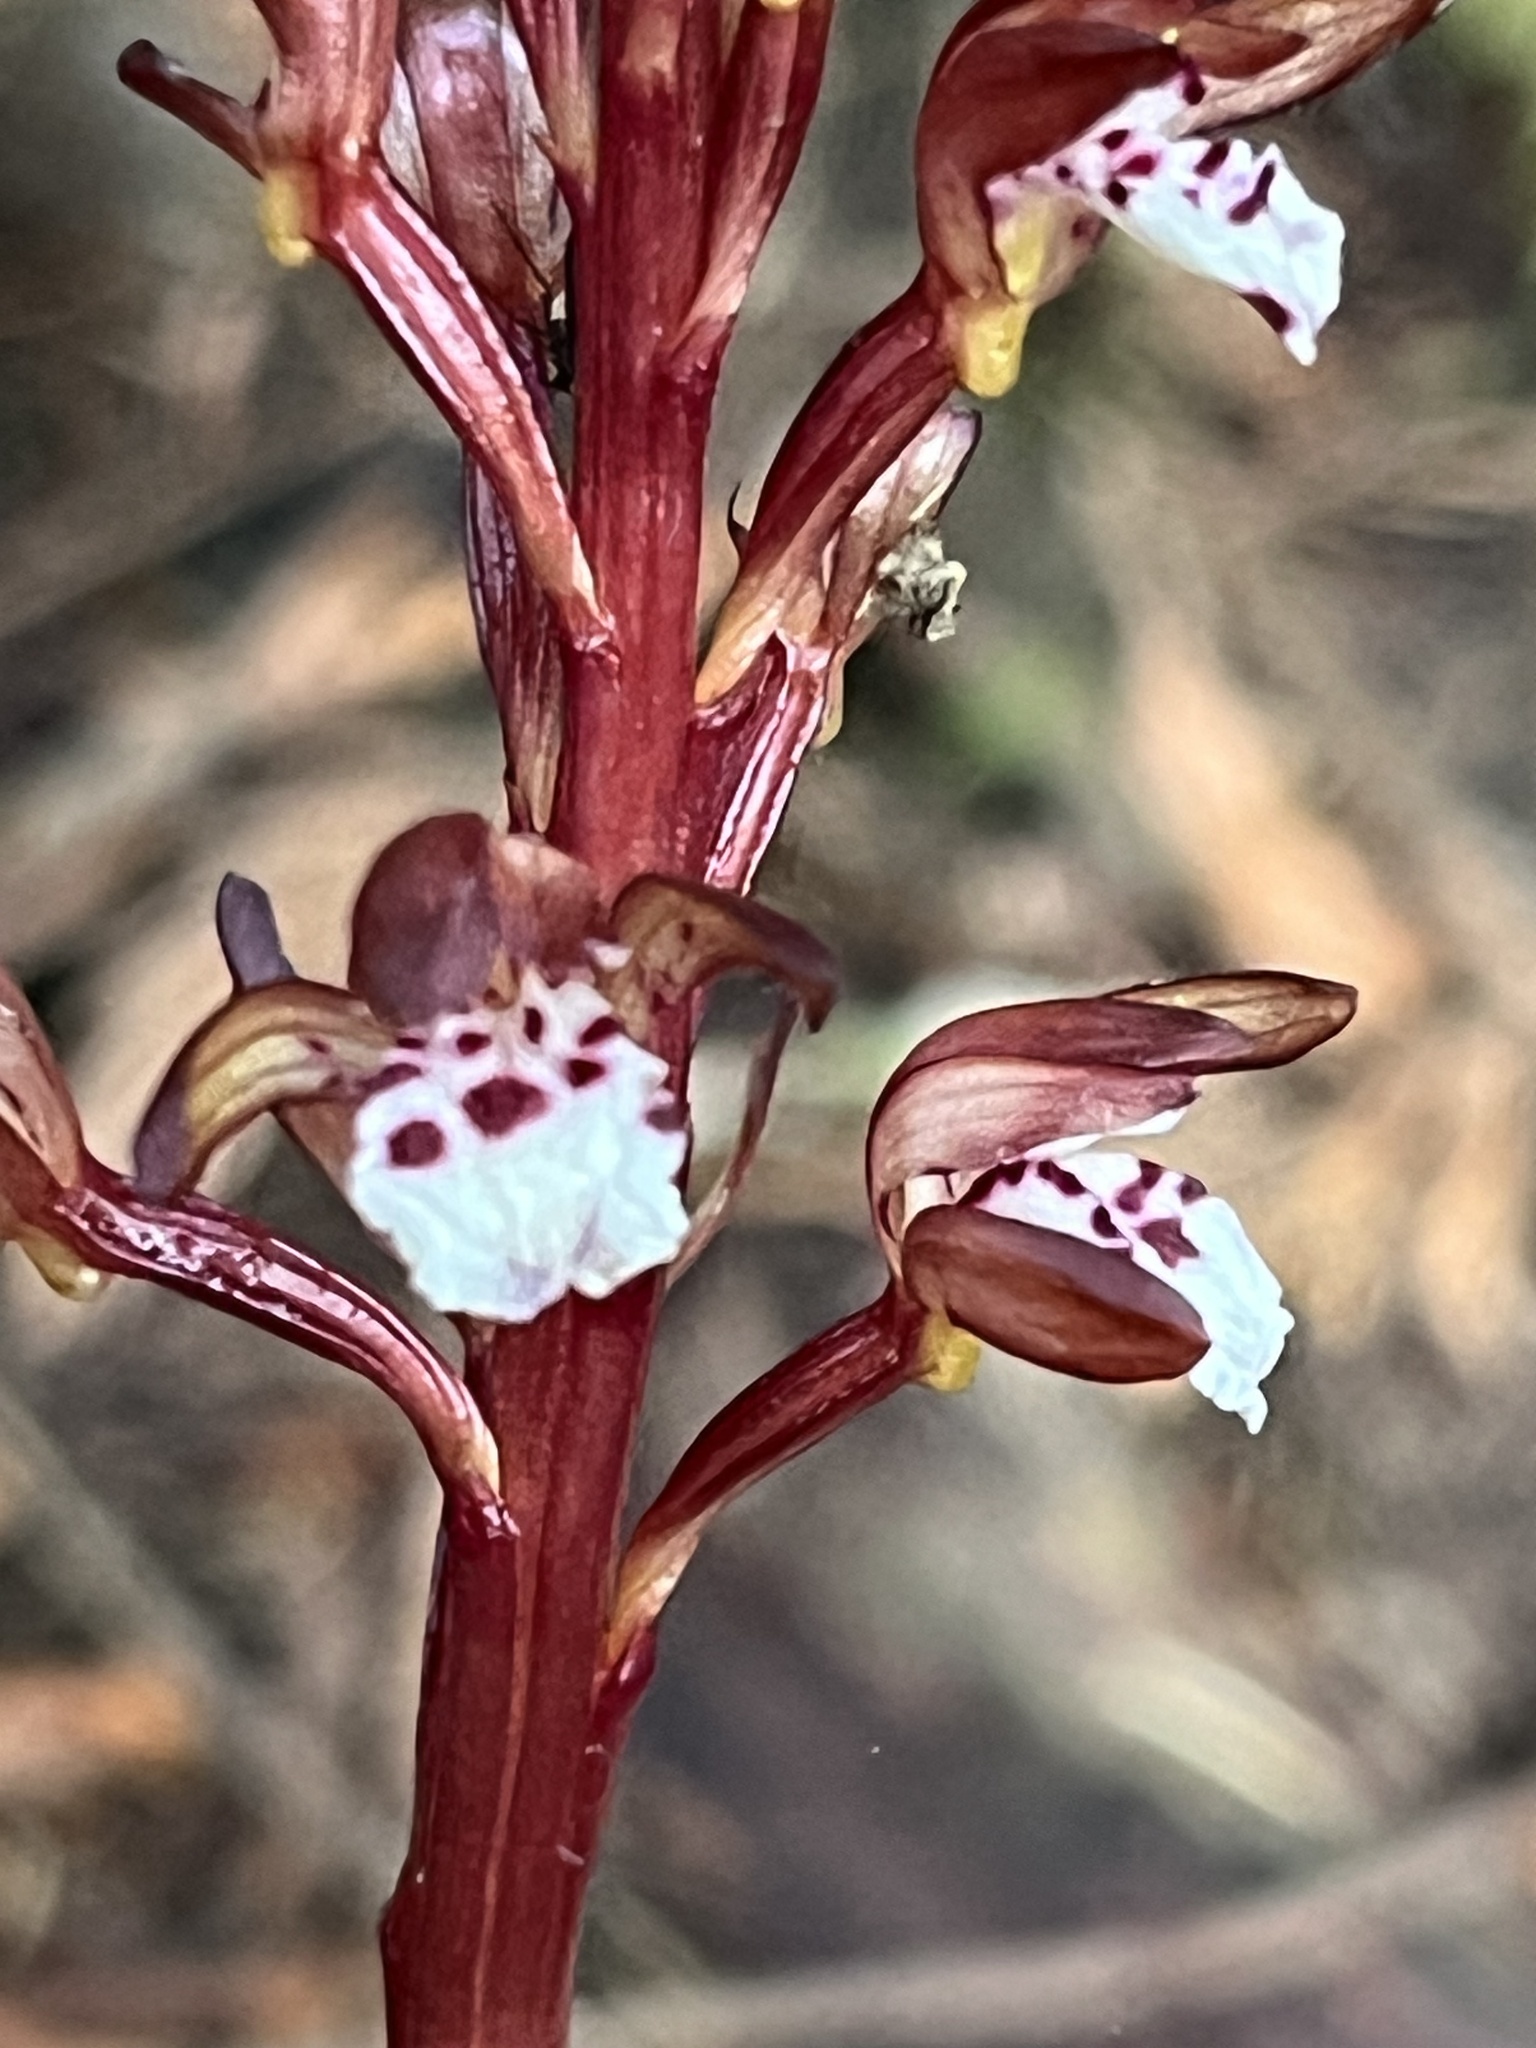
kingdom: Plantae
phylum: Tracheophyta
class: Liliopsida
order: Asparagales
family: Orchidaceae
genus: Corallorhiza
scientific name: Corallorhiza maculata
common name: Spotted coralroot
